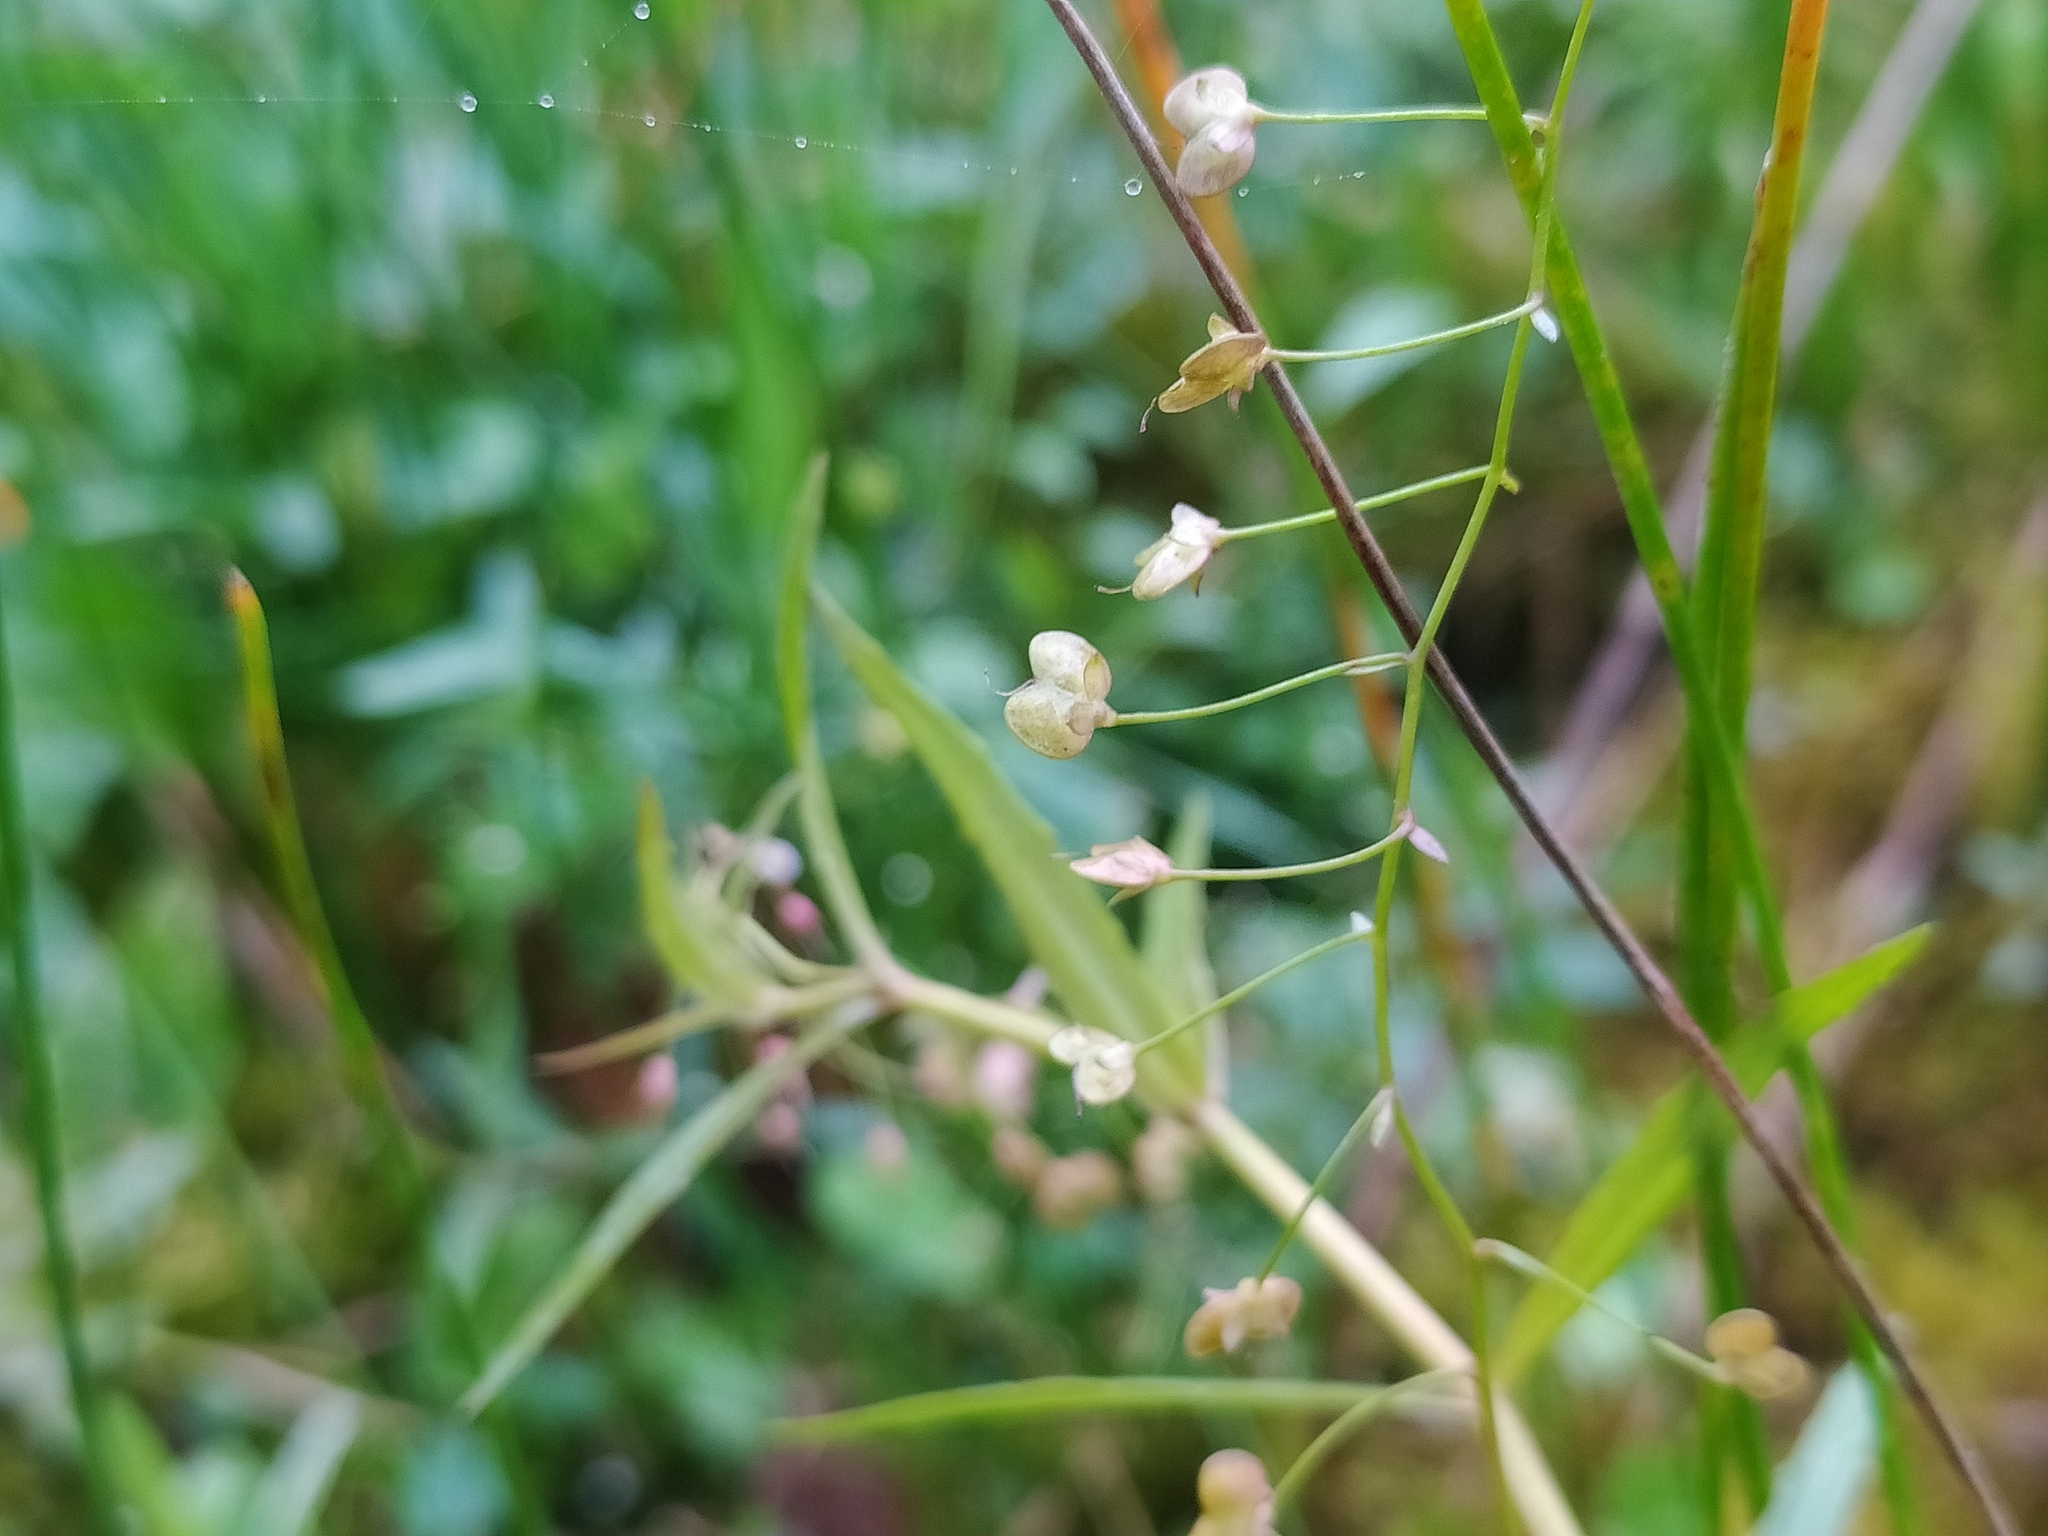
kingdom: Plantae
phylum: Tracheophyta
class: Magnoliopsida
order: Lamiales
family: Plantaginaceae
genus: Veronica
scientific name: Veronica scutellata
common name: Marsh speedwell
